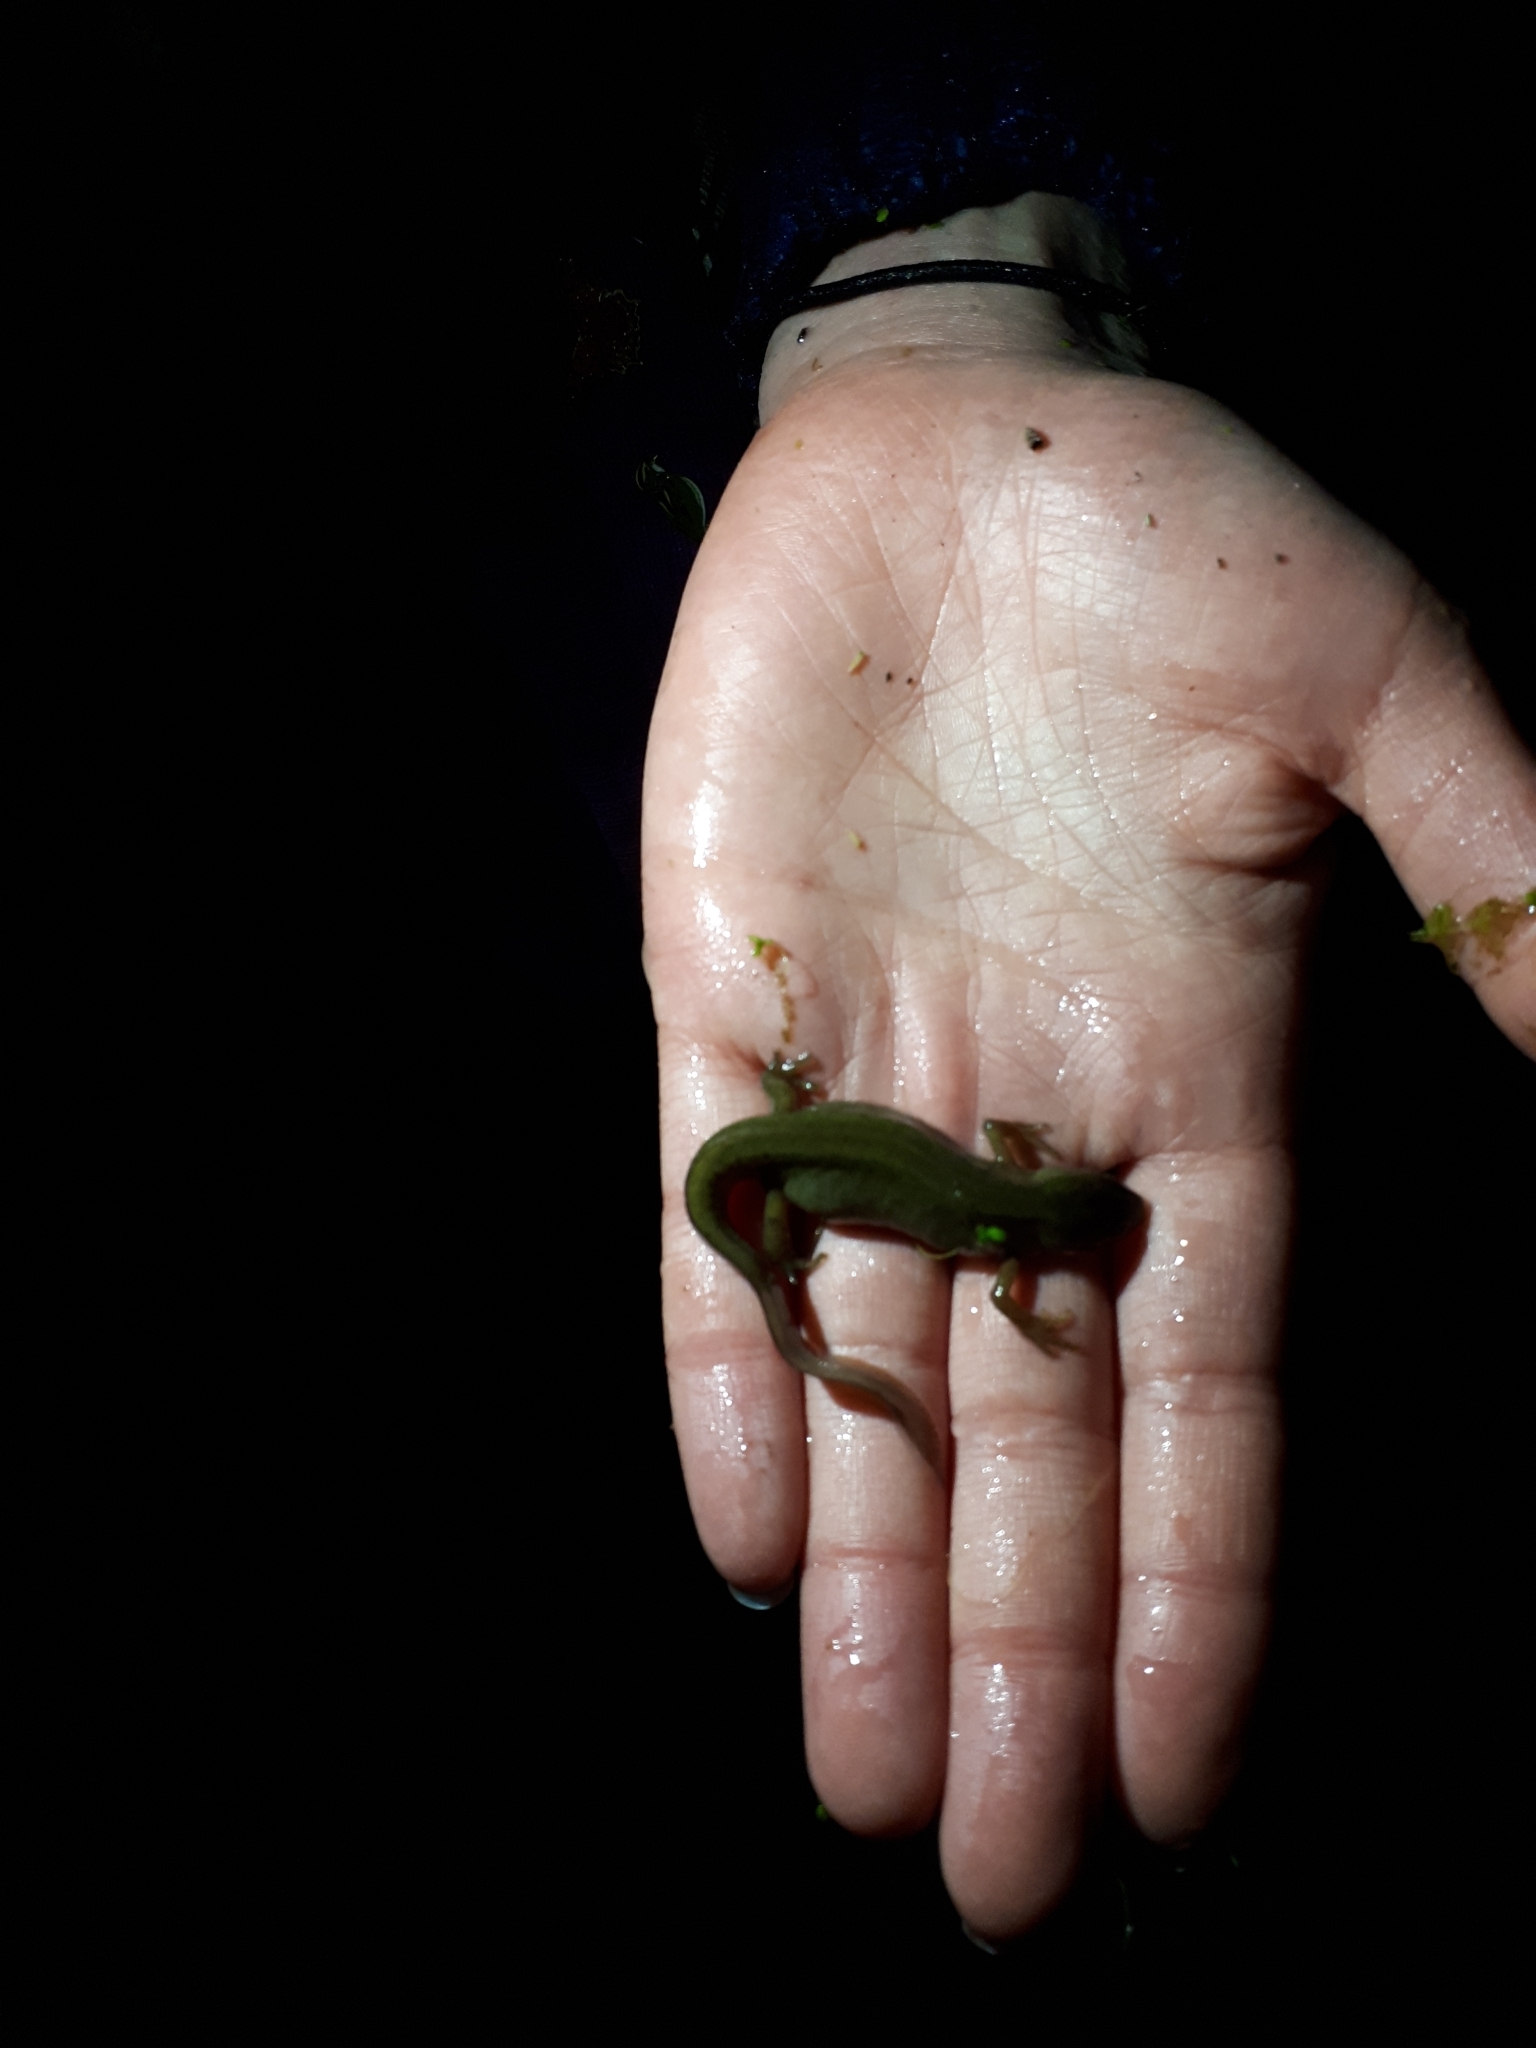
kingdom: Animalia
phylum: Chordata
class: Amphibia
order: Caudata
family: Salamandridae
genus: Lissotriton
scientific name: Lissotriton vulgaris
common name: Smooth newt
